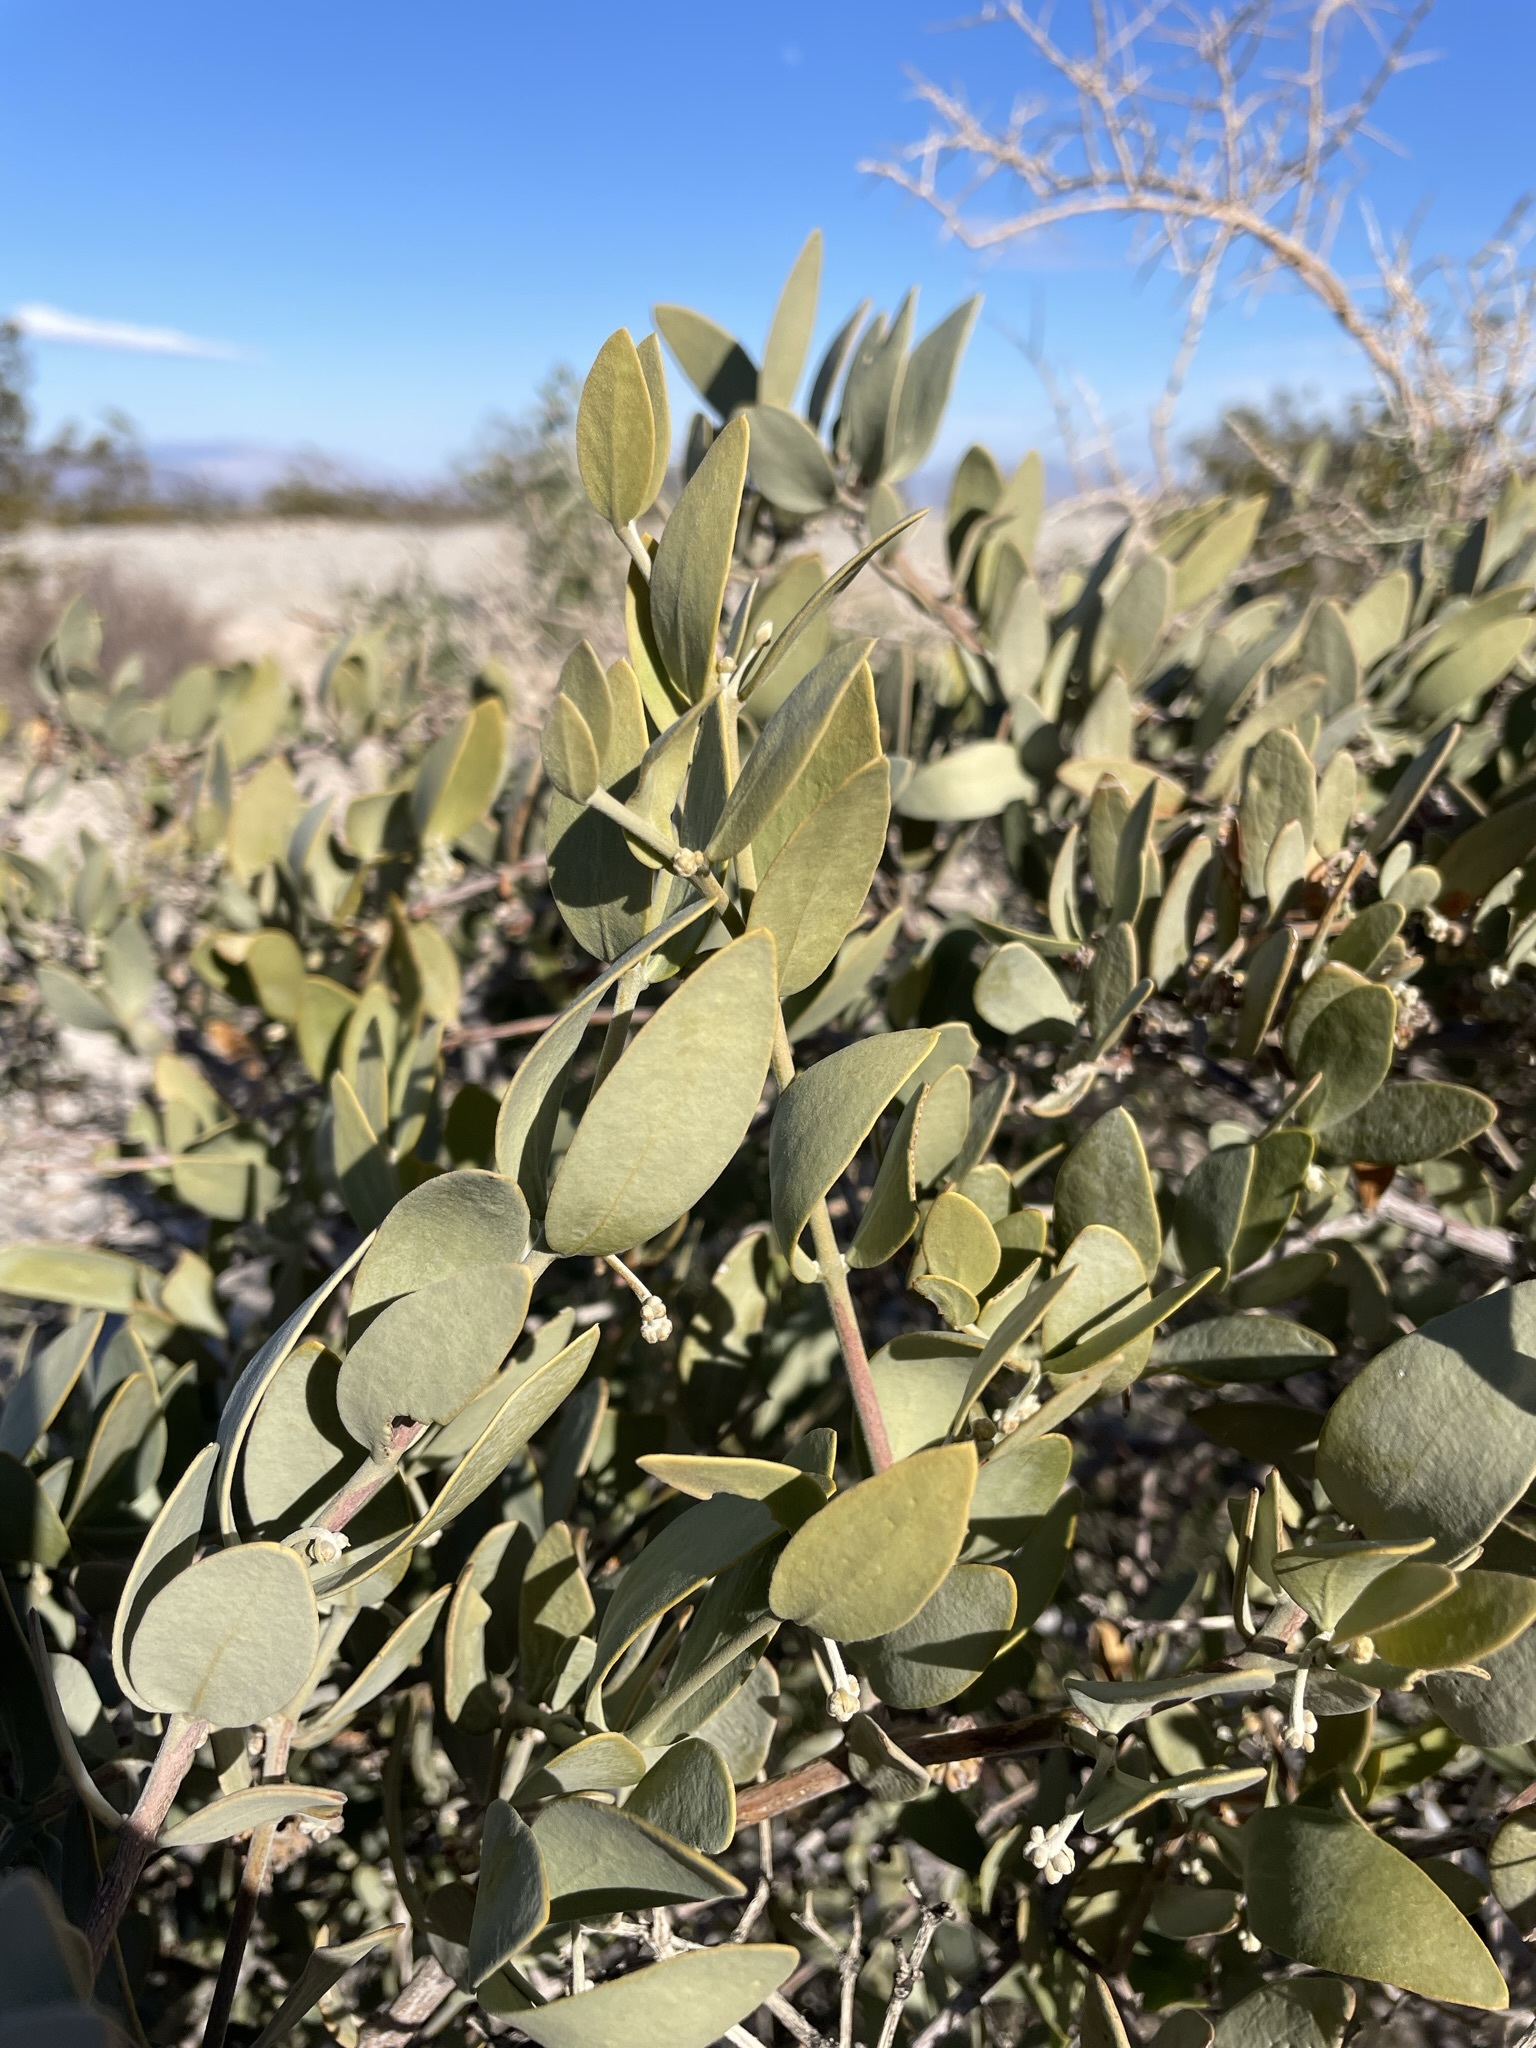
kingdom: Plantae
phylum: Tracheophyta
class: Magnoliopsida
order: Caryophyllales
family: Simmondsiaceae
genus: Simmondsia
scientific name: Simmondsia chinensis
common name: Jojoba
